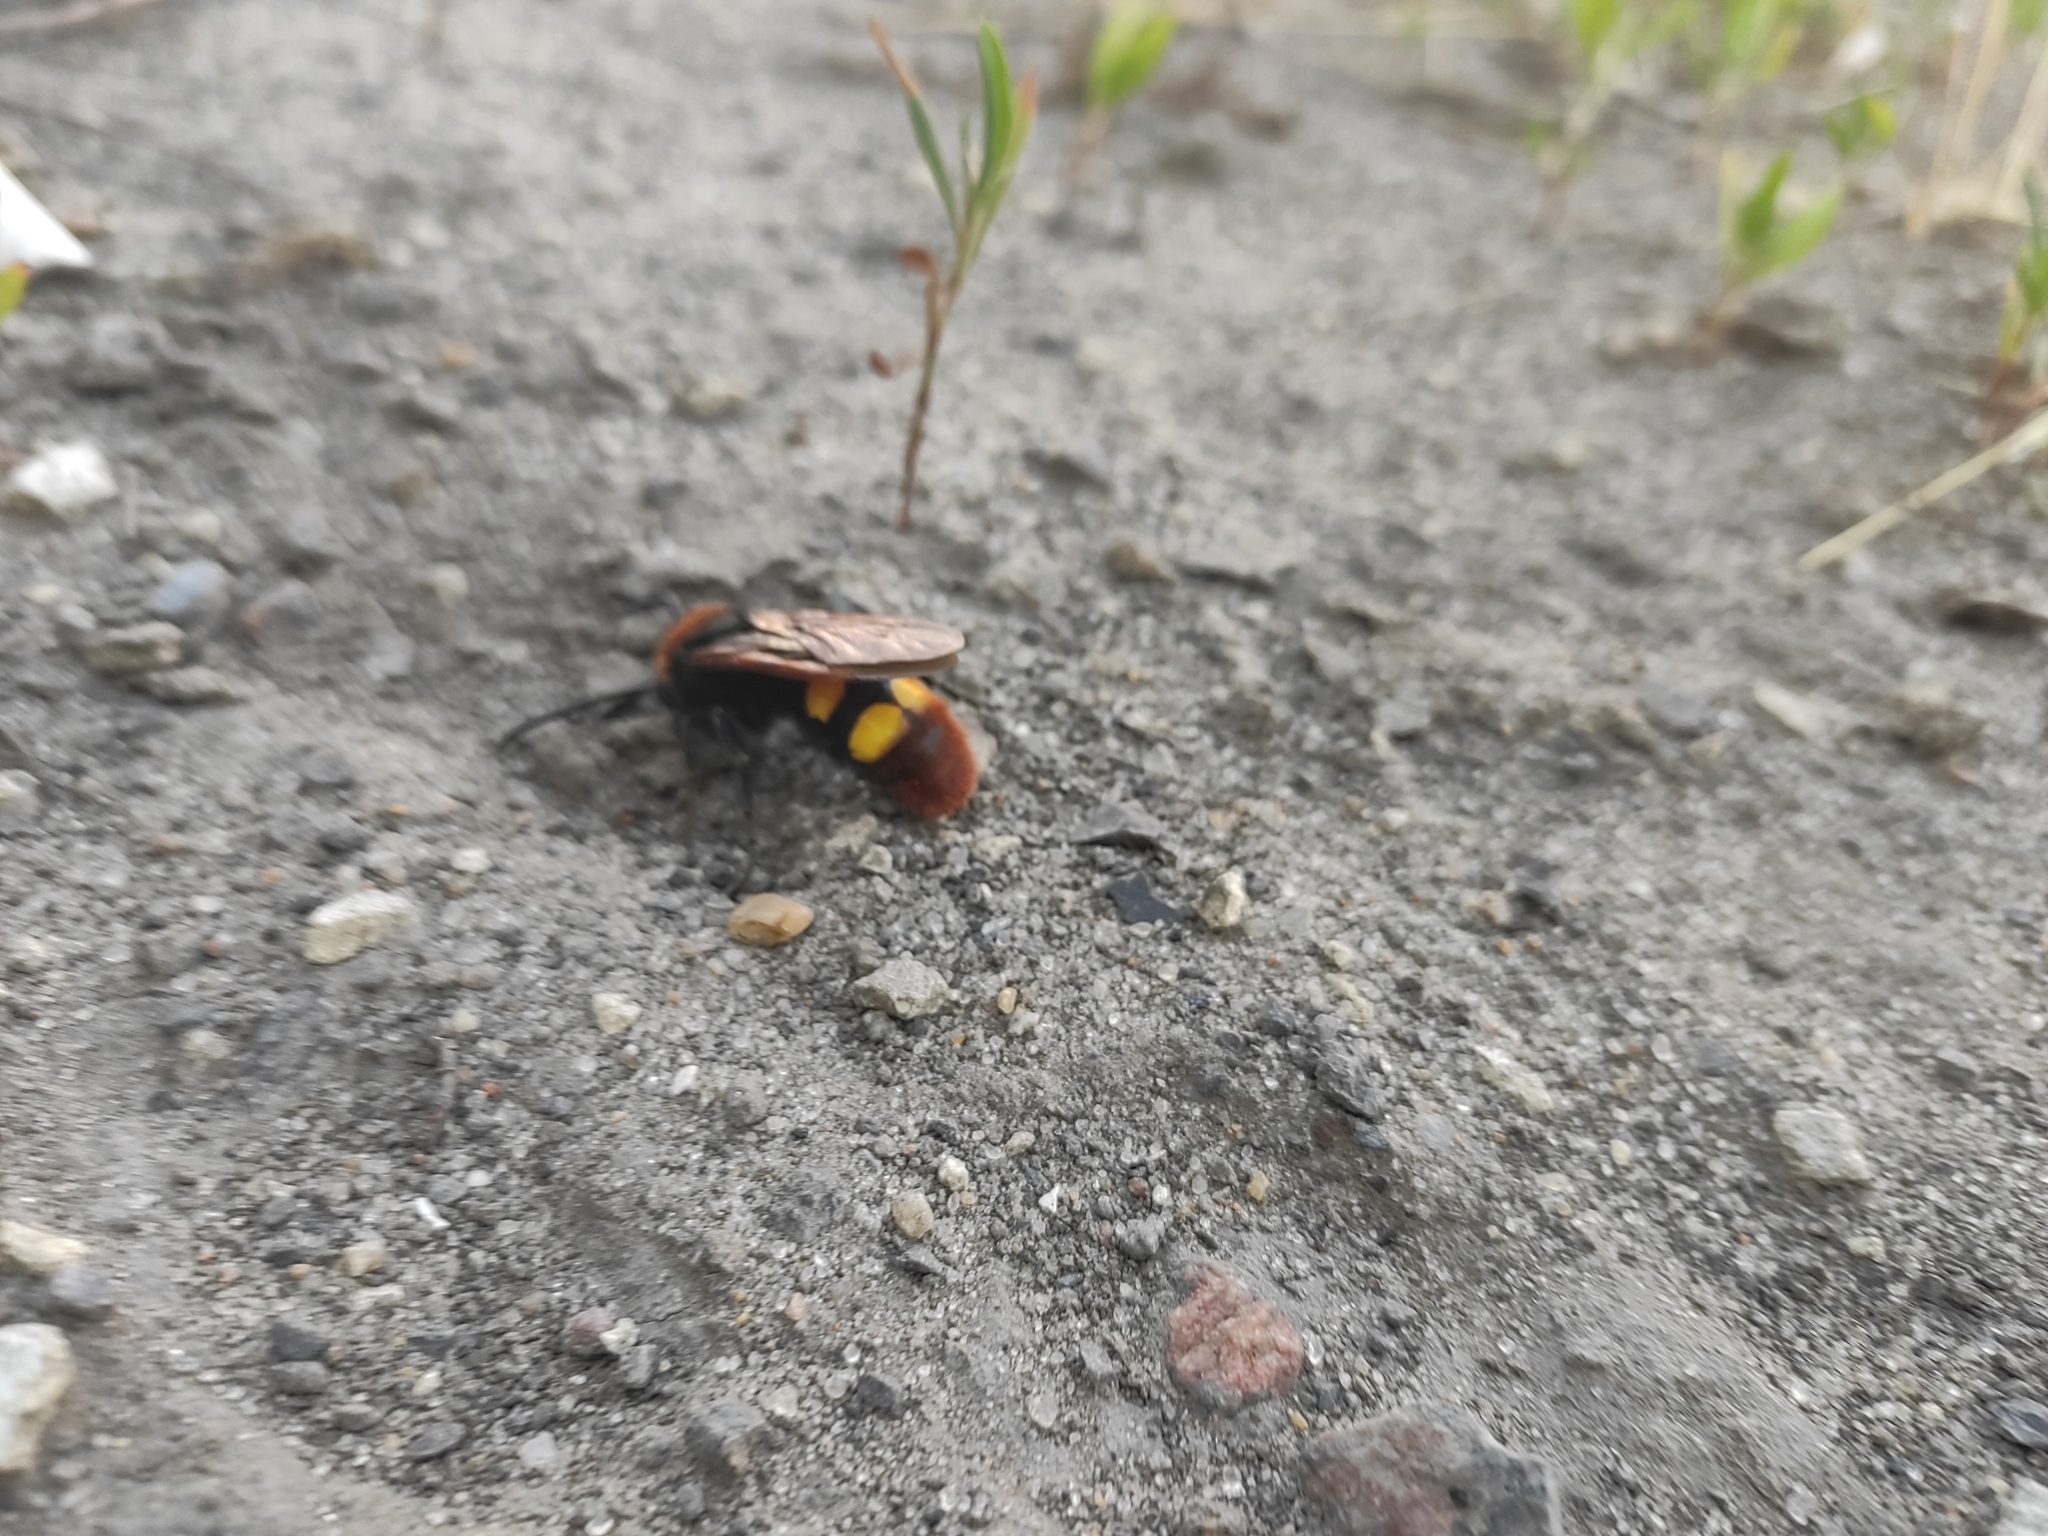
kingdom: Animalia
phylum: Arthropoda
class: Insecta
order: Hymenoptera
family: Scoliidae
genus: Megascolia
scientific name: Megascolia maculata
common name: Mammoth wasp
